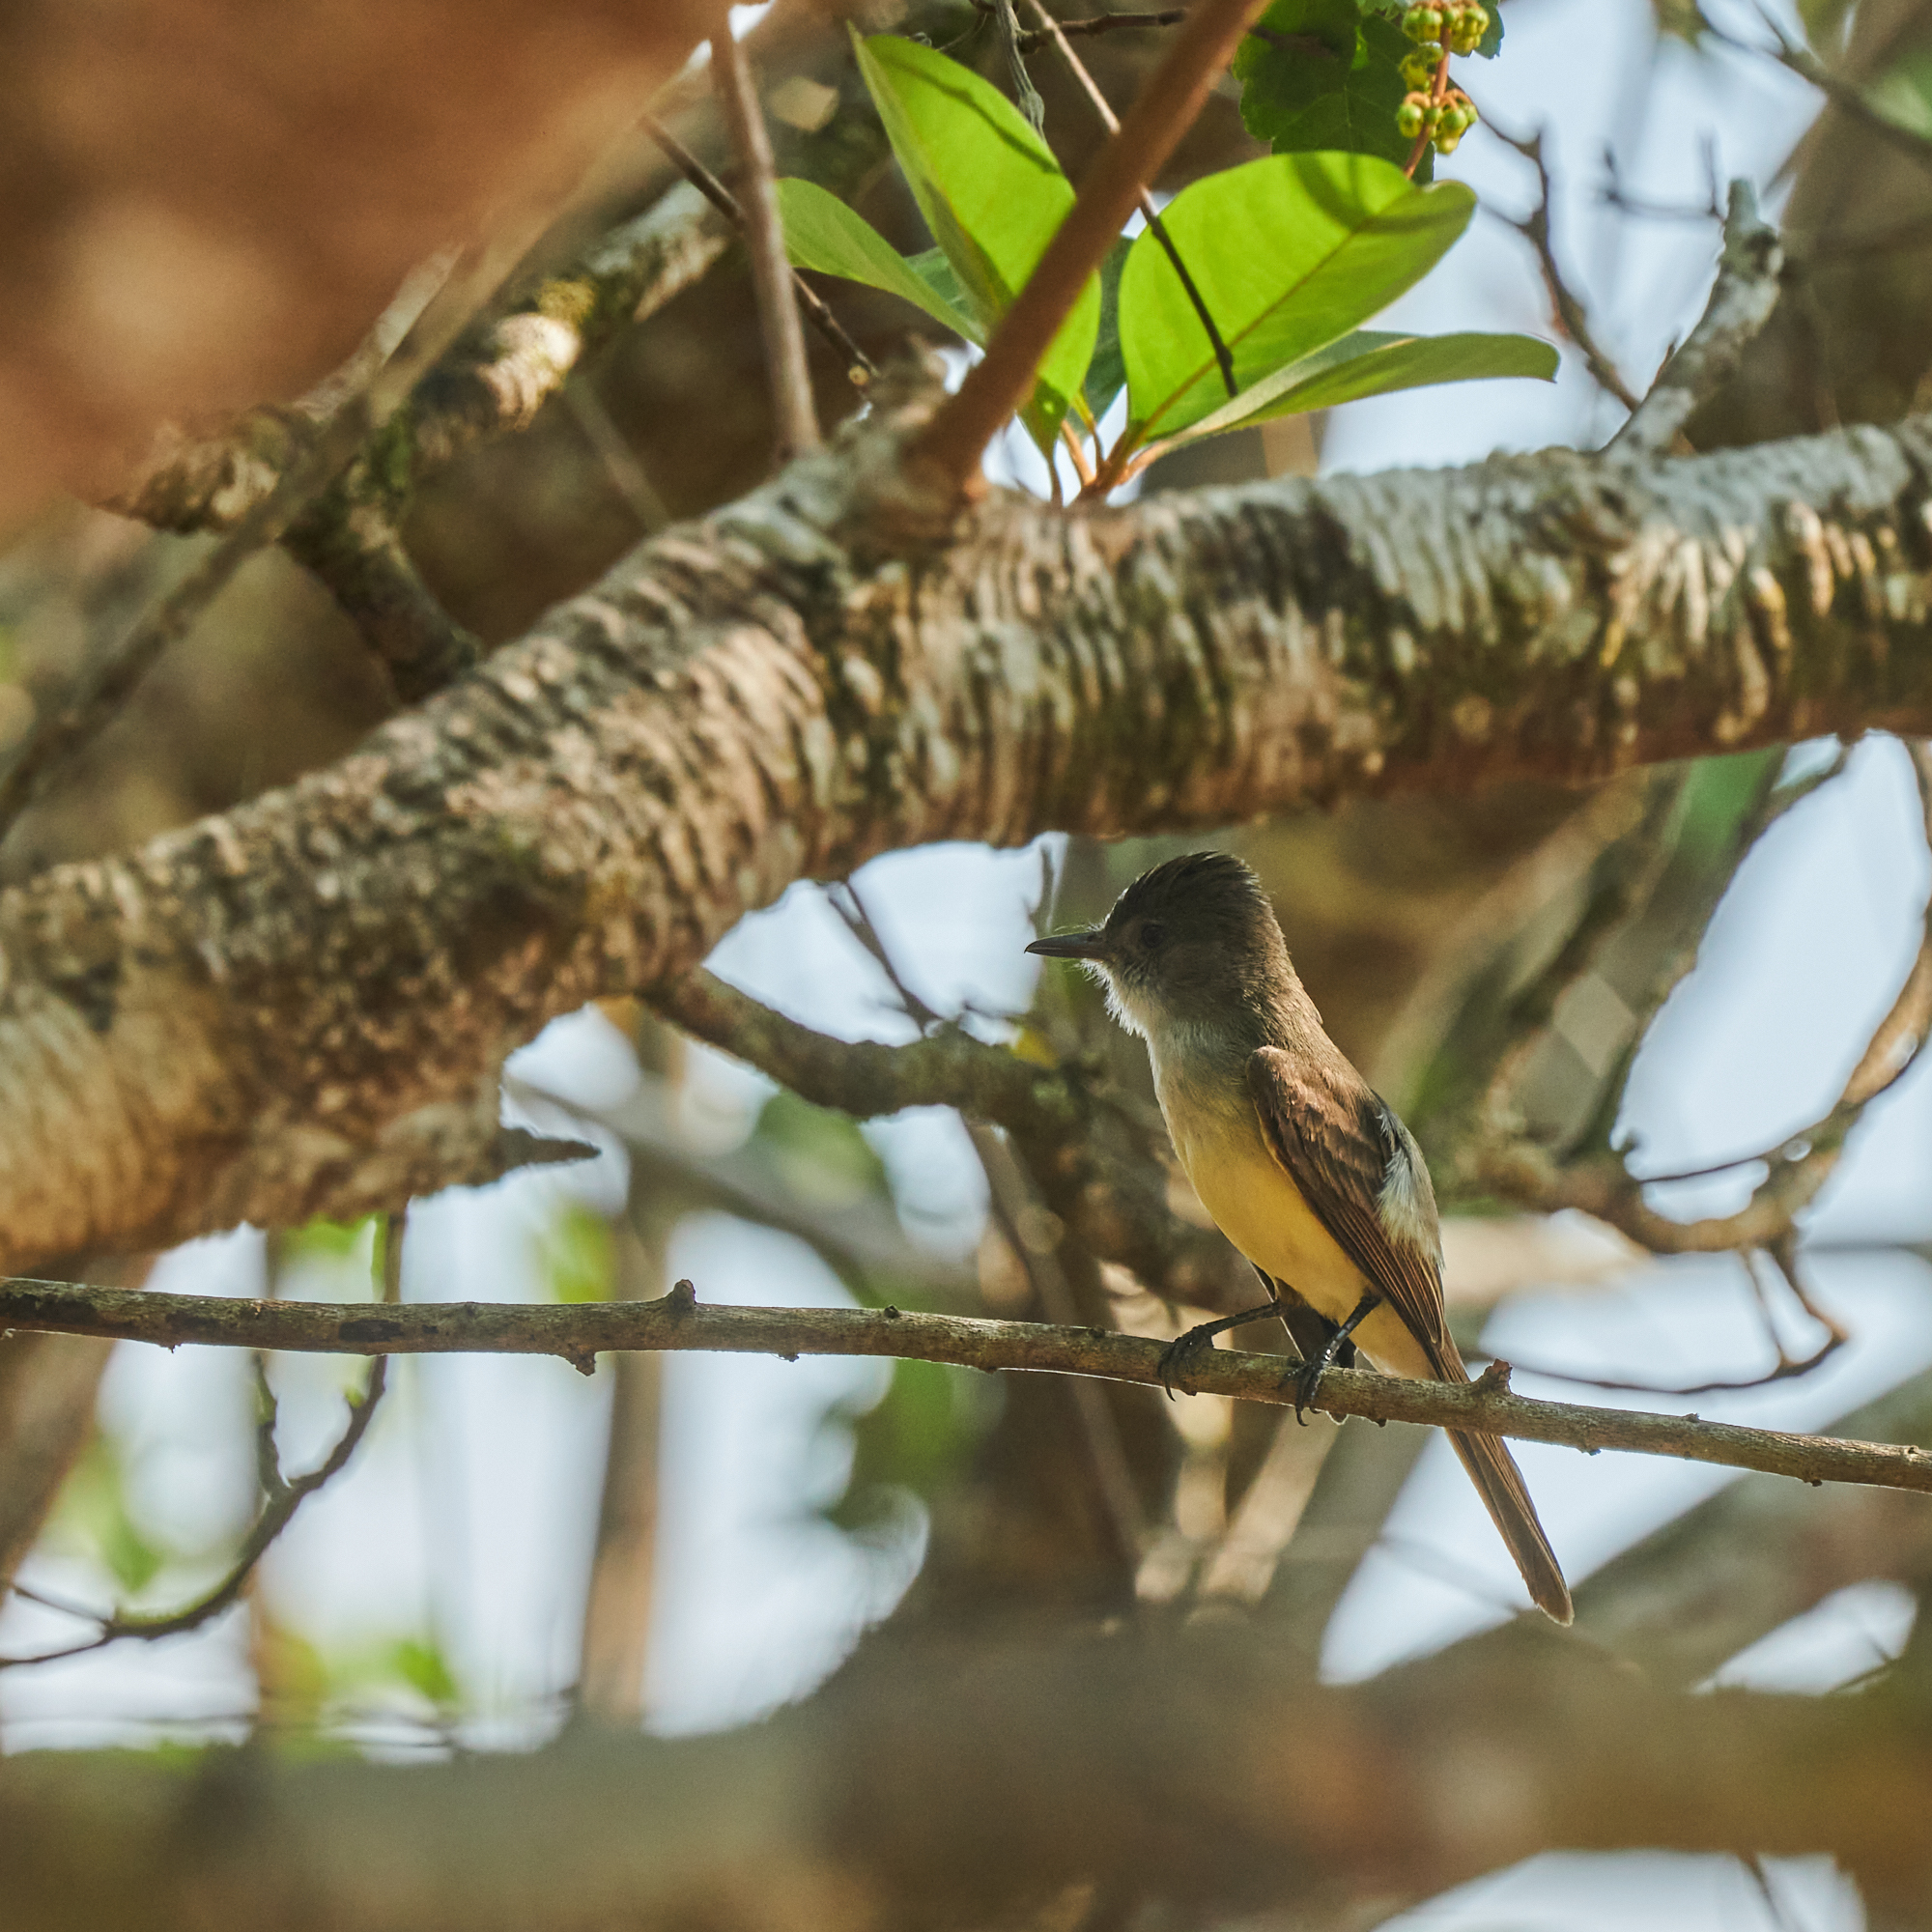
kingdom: Animalia
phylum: Chordata
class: Aves
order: Passeriformes
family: Tyrannidae
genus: Myiarchus
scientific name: Myiarchus tuberculifer
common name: Dusky-capped flycatcher
